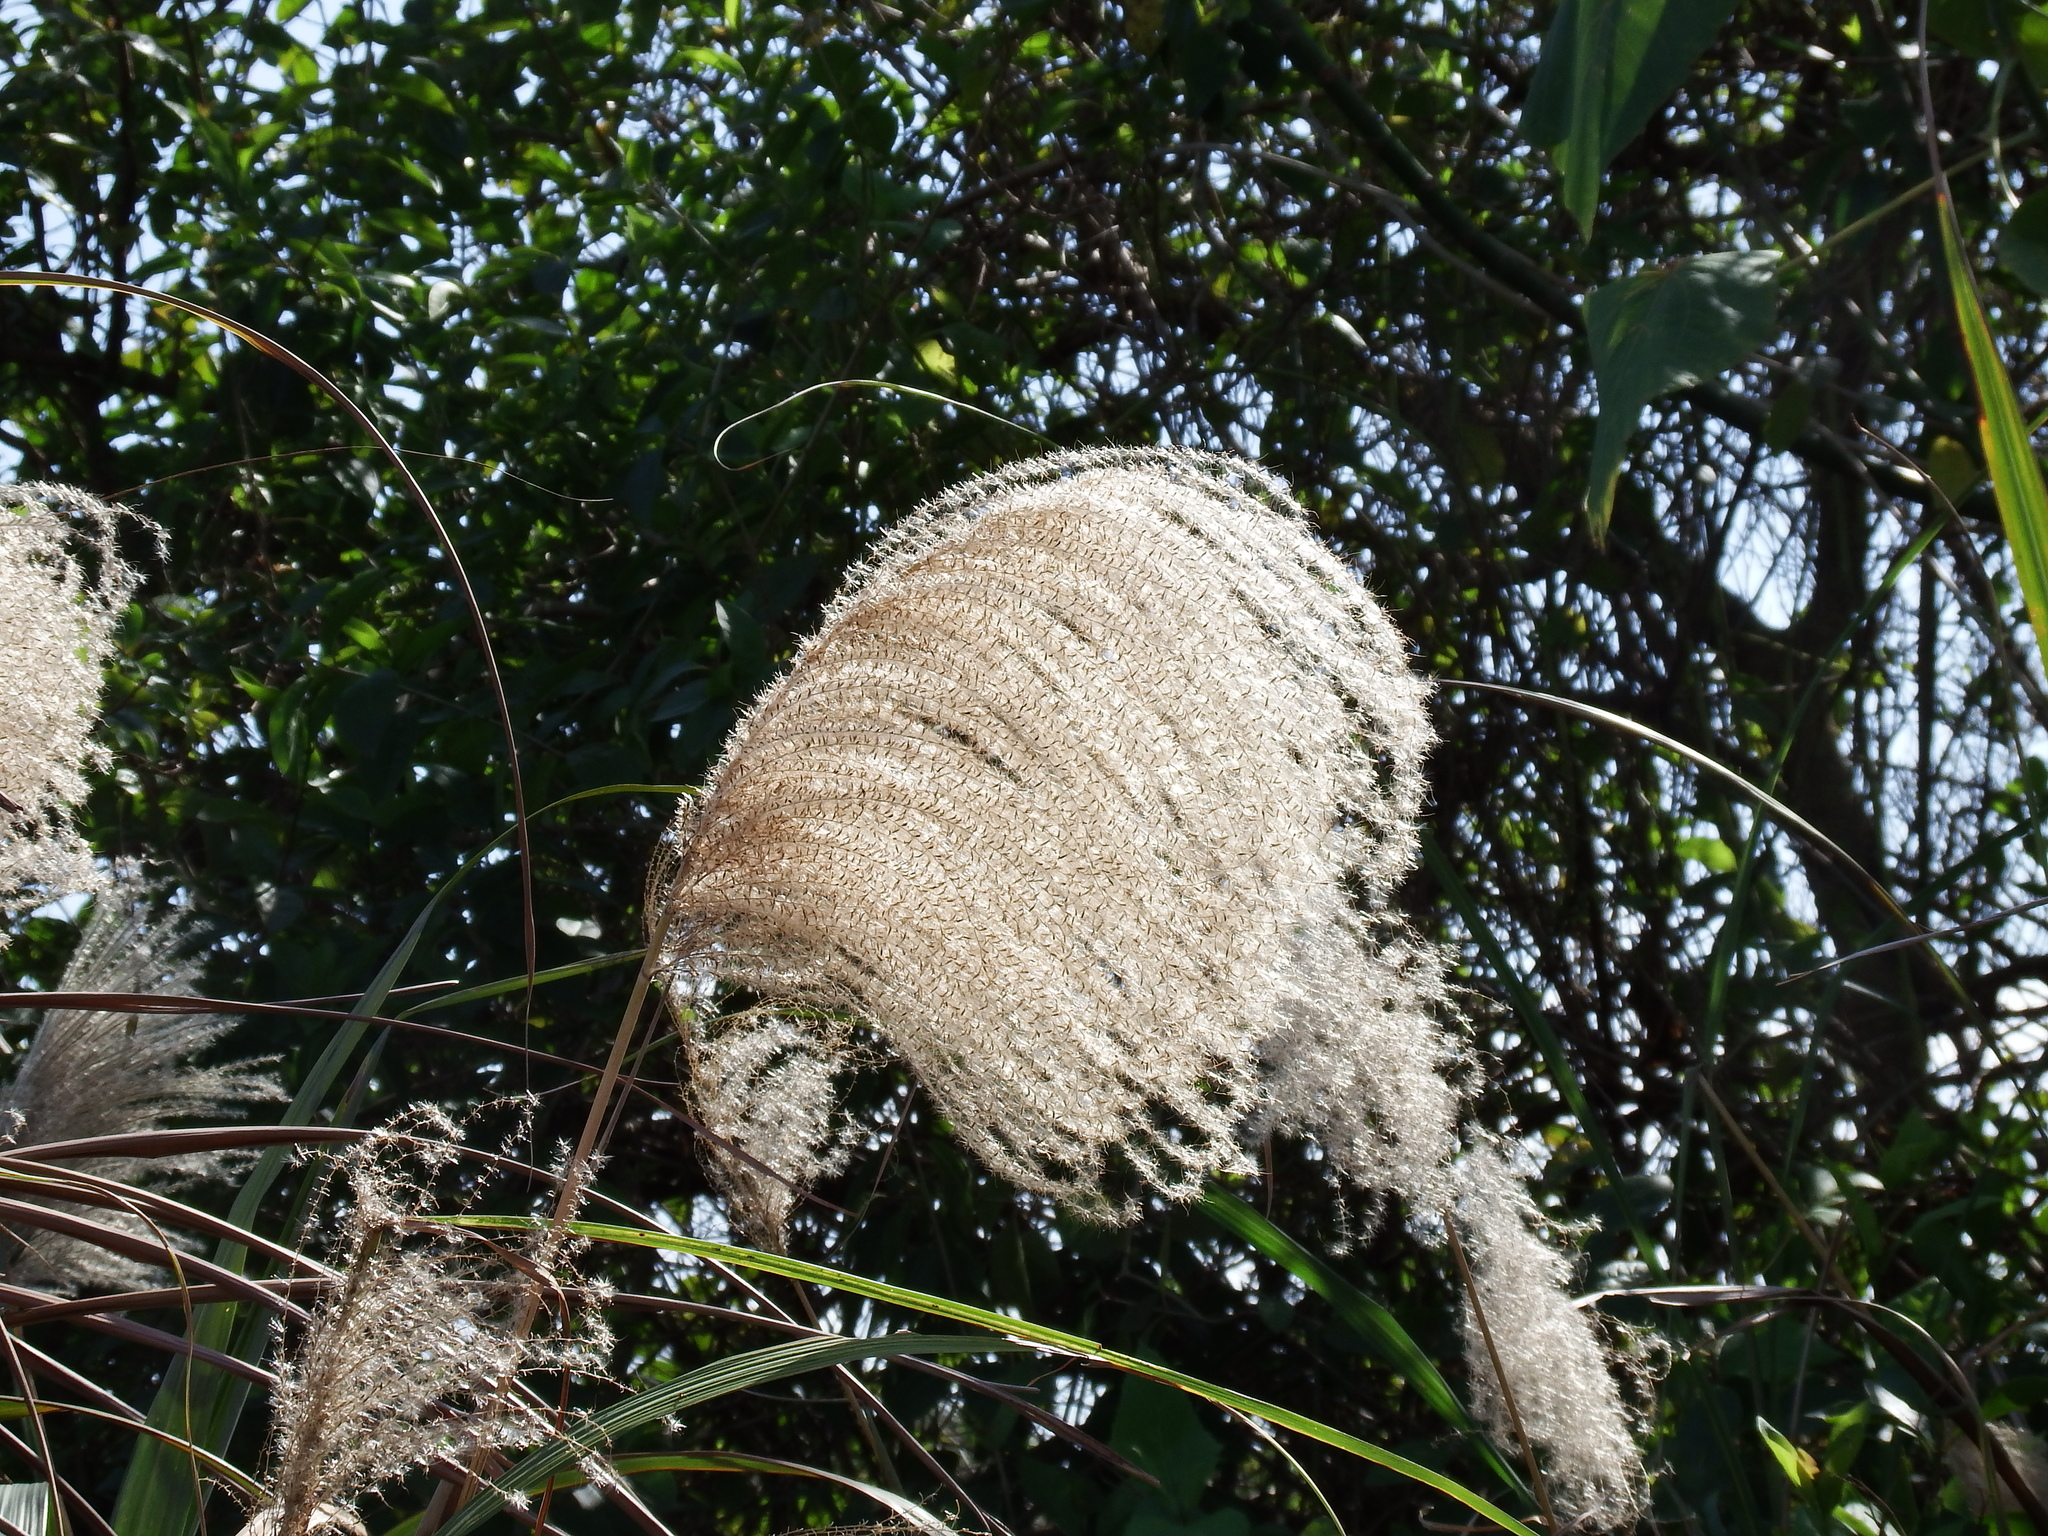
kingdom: Plantae
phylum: Tracheophyta
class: Liliopsida
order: Poales
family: Poaceae
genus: Miscanthus
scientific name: Miscanthus sinensis
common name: Chinese silvergrass
